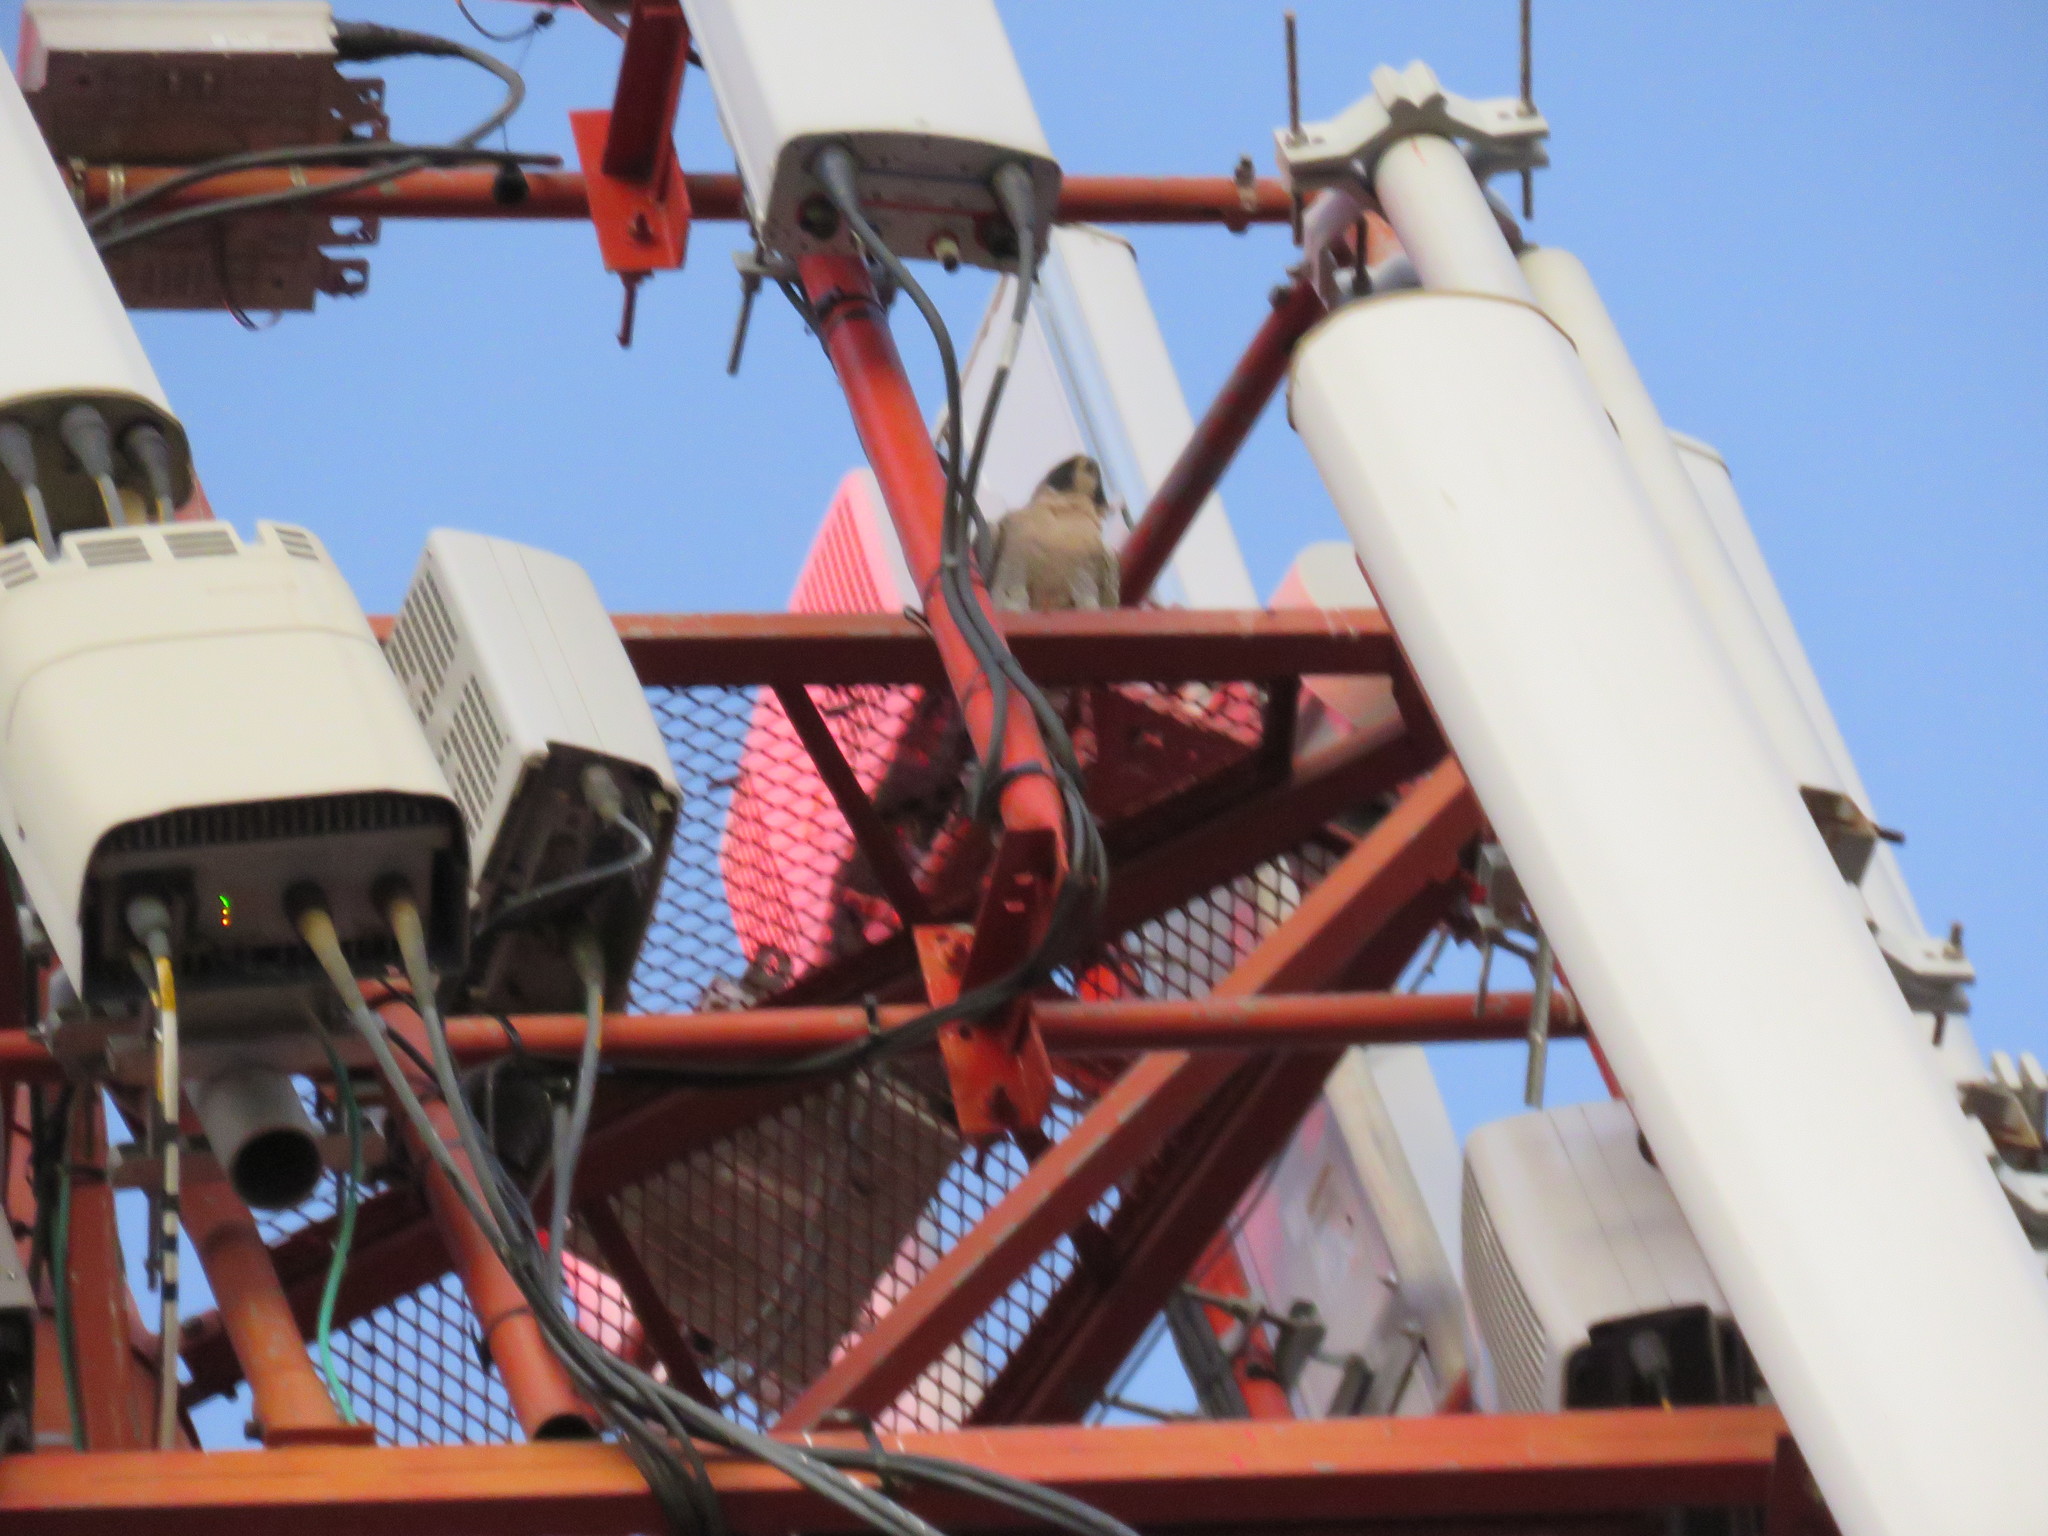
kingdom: Animalia
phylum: Chordata
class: Aves
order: Falconiformes
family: Falconidae
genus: Falco
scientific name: Falco peregrinus
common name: Peregrine falcon
